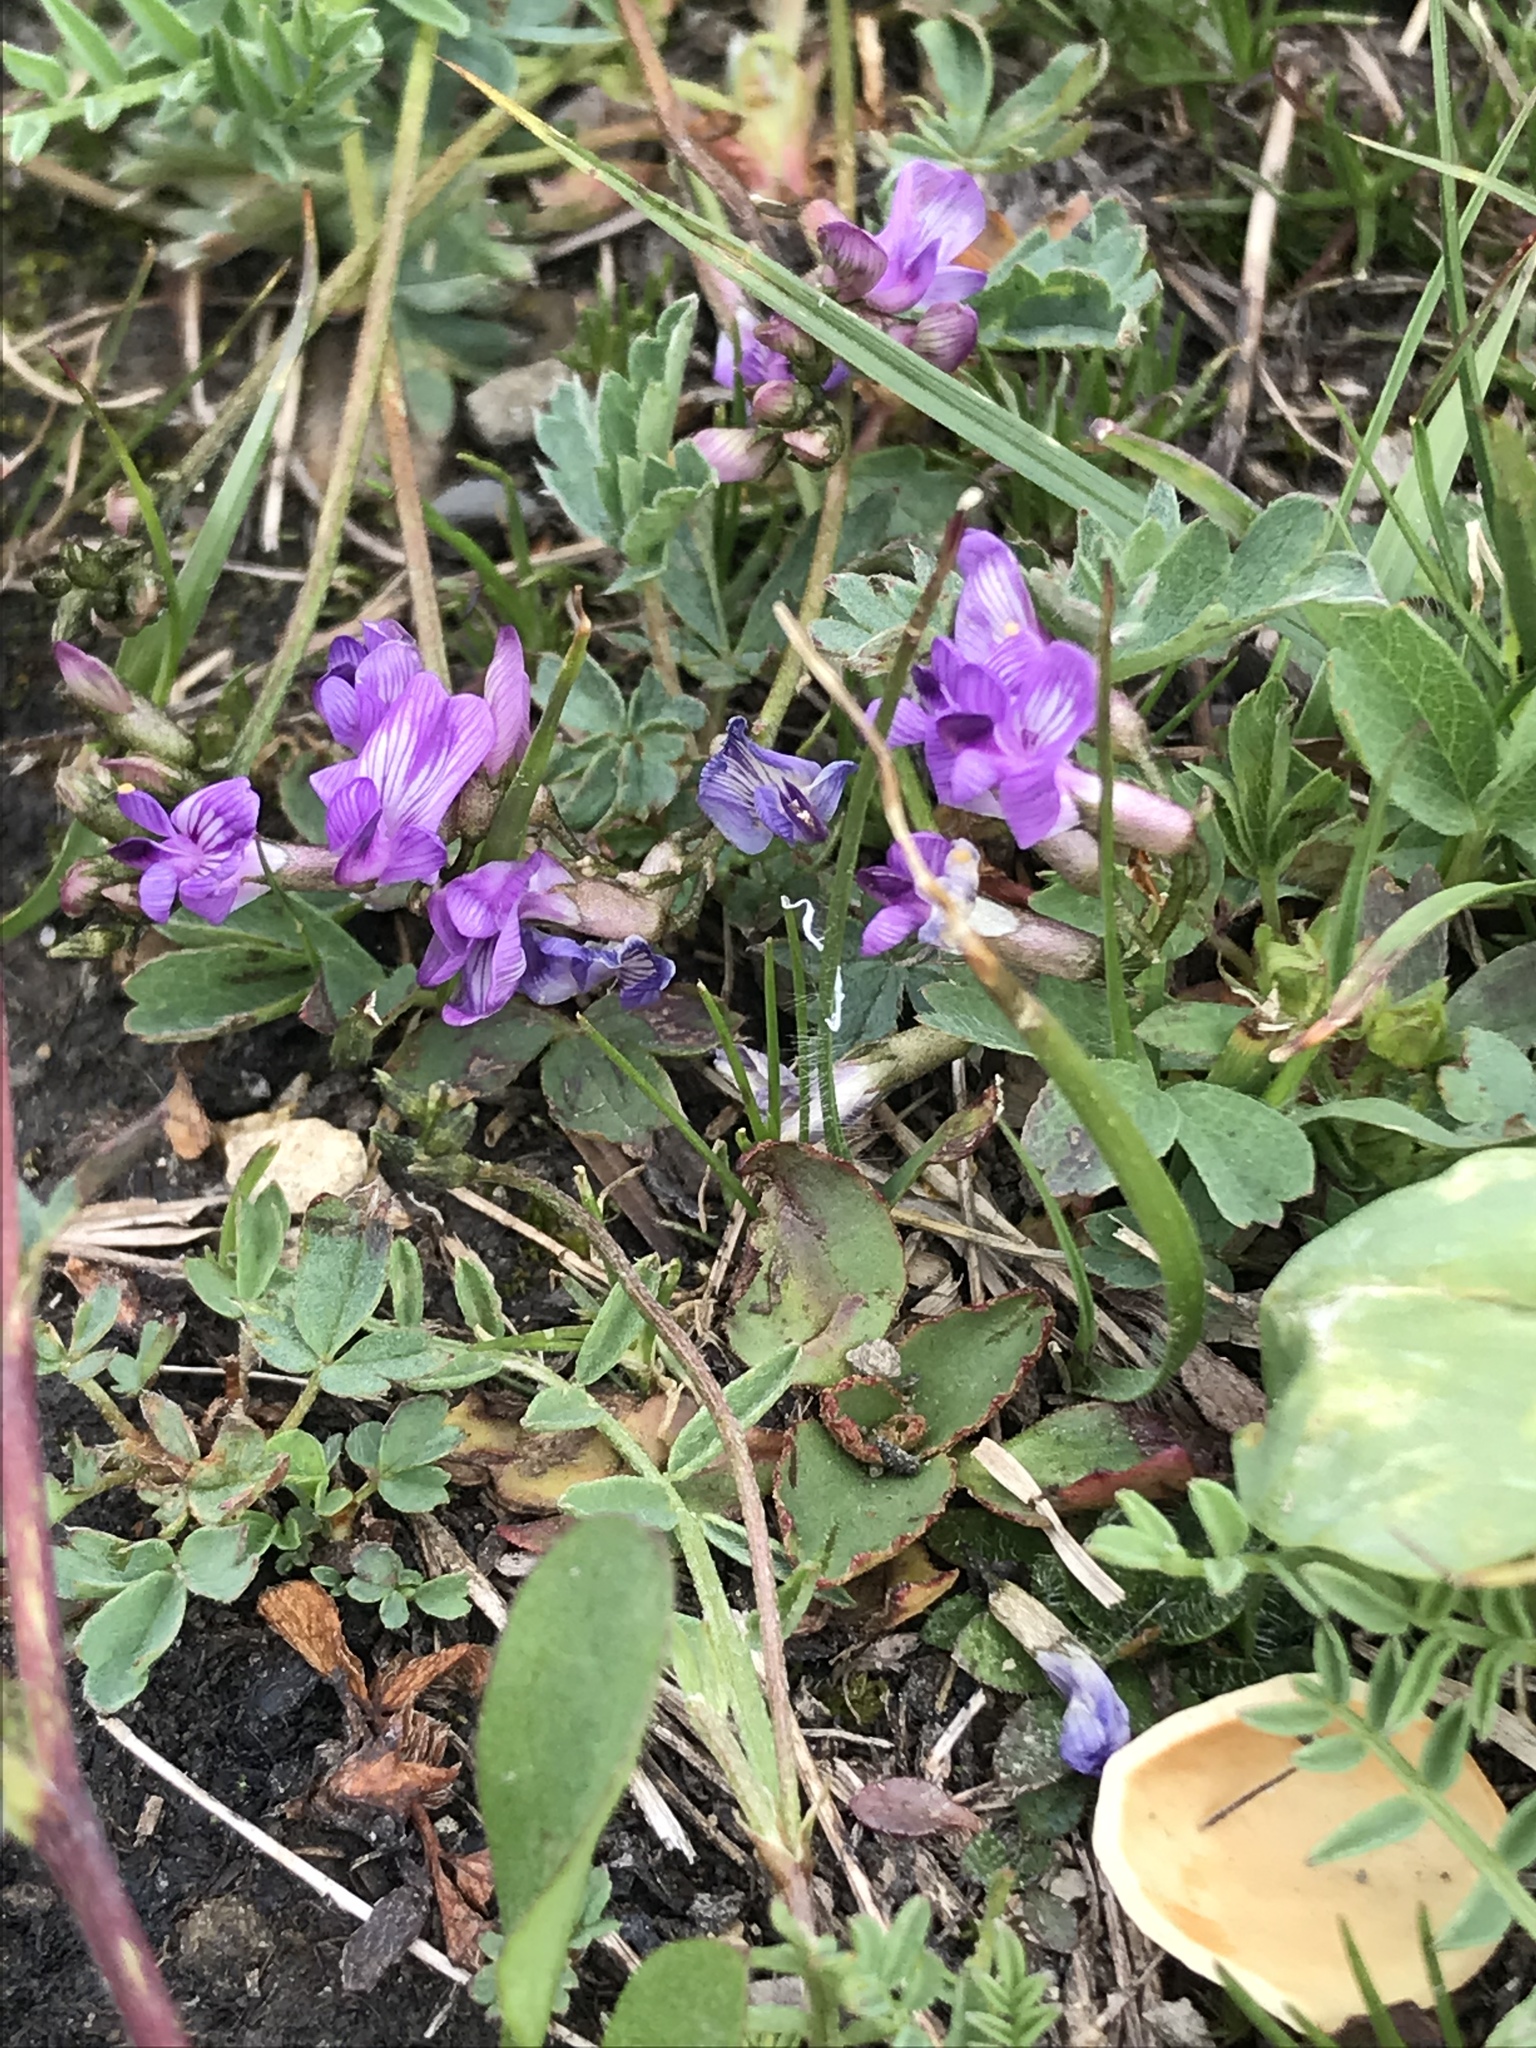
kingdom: Plantae
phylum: Tracheophyta
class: Magnoliopsida
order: Fabales
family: Fabaceae
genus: Astragalus
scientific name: Astragalus bourgovii
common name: Bourgeau's milk-vetch
